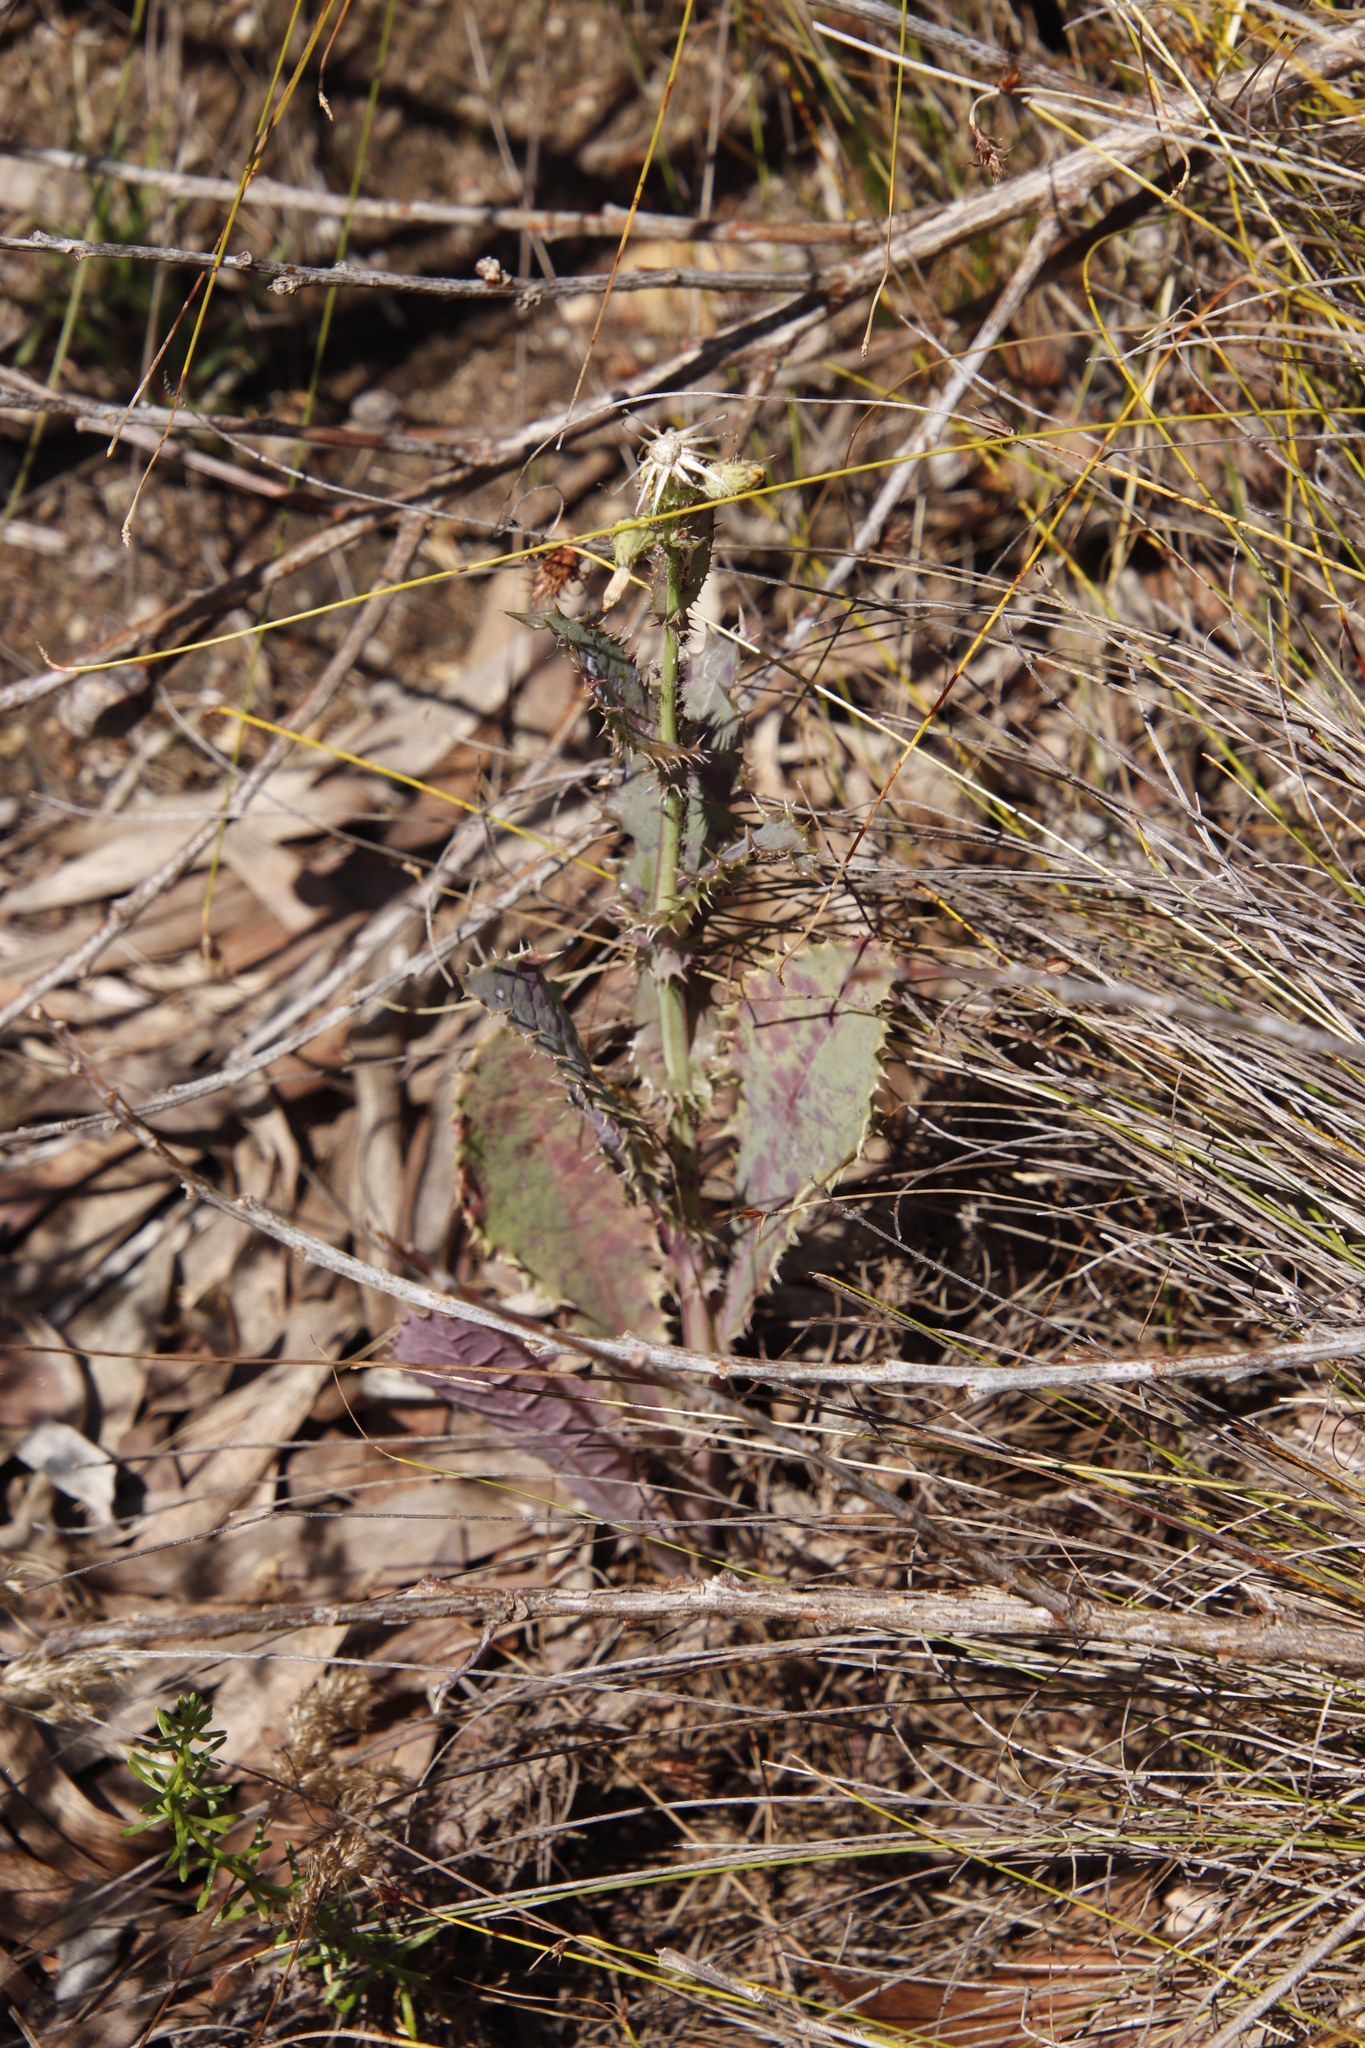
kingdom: Plantae
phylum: Tracheophyta
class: Magnoliopsida
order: Asterales
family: Asteraceae
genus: Sonchus
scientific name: Sonchus asper
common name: Prickly sow-thistle
